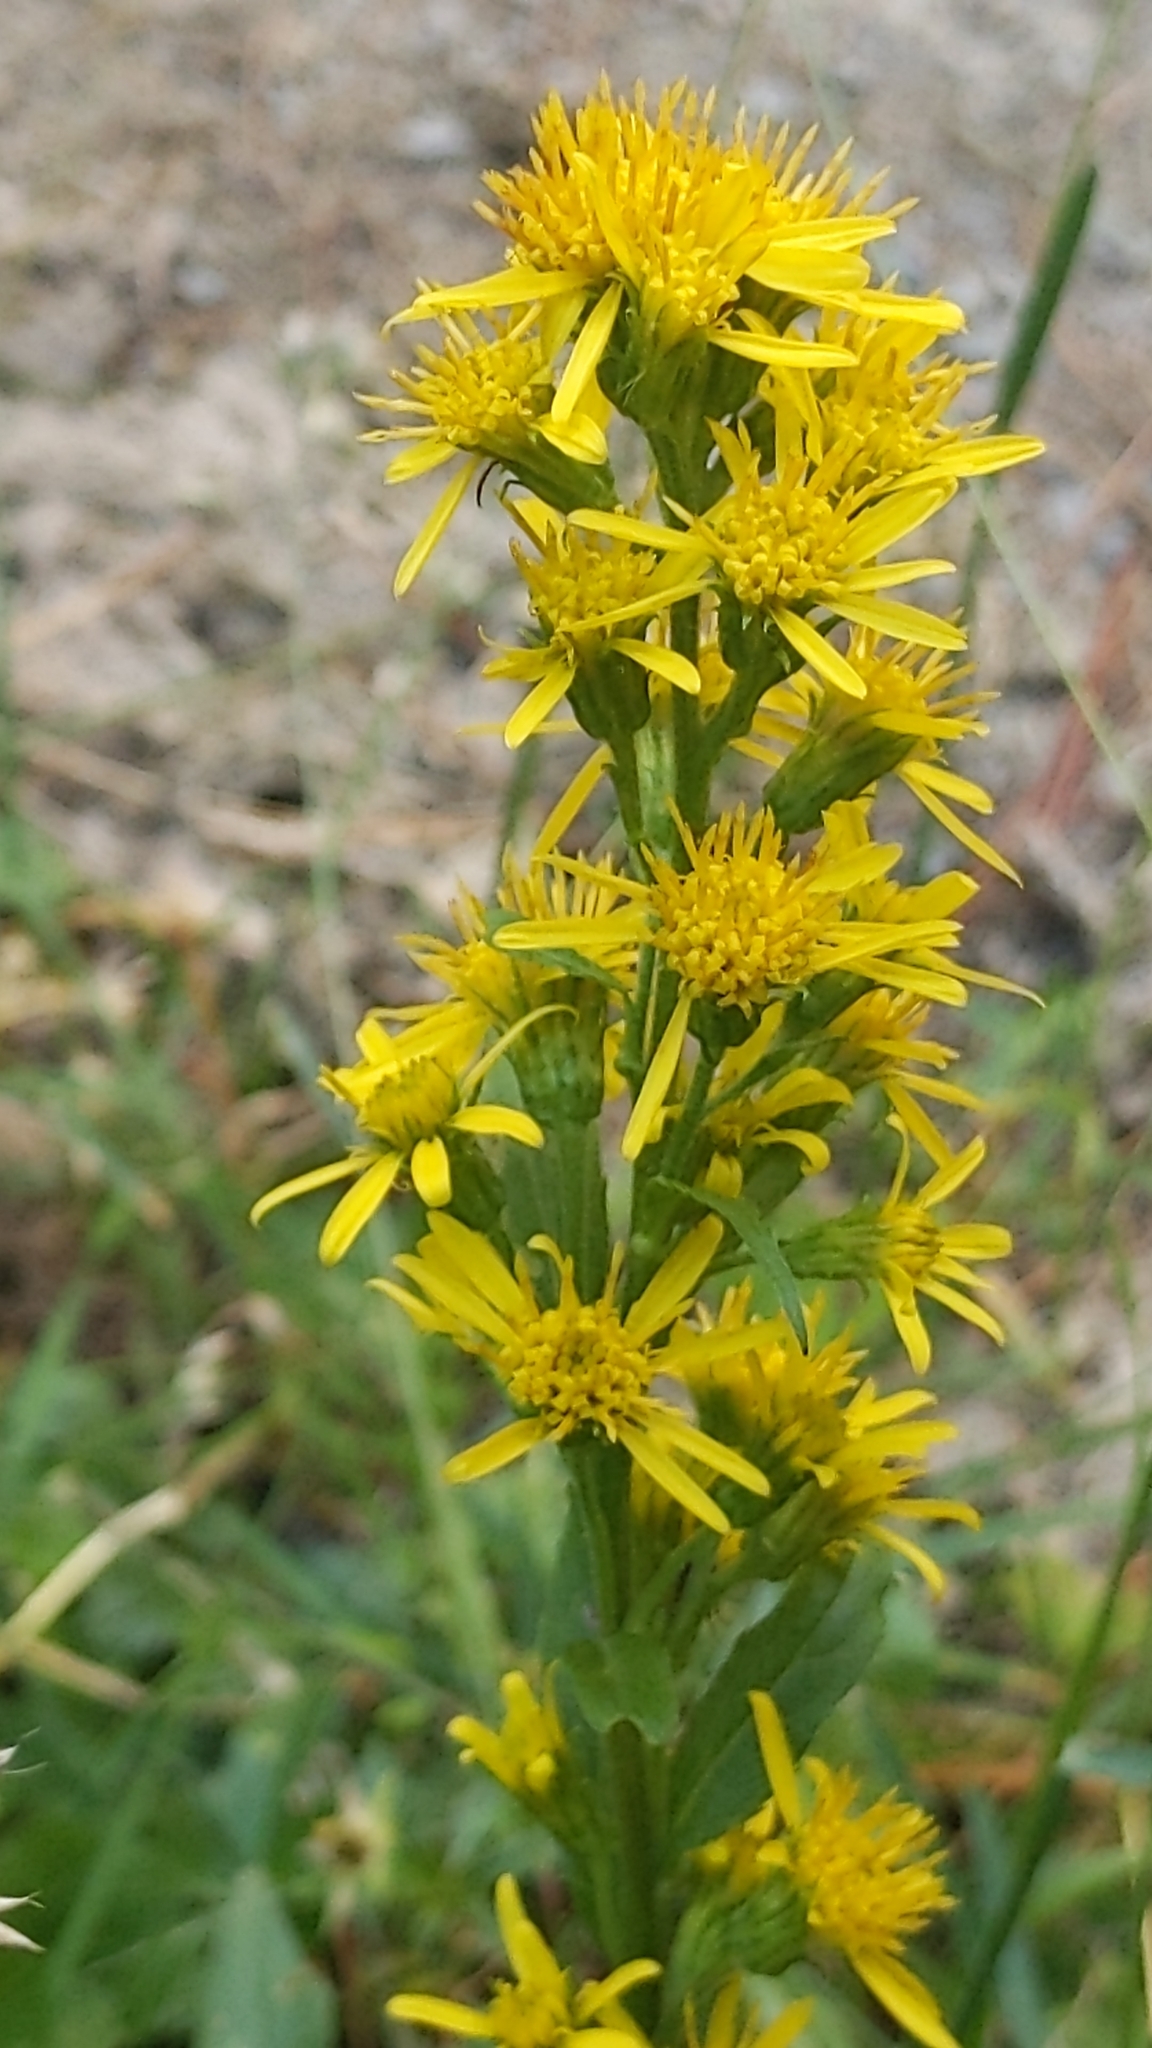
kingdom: Plantae
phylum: Tracheophyta
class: Magnoliopsida
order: Asterales
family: Asteraceae
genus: Solidago
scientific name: Solidago virgaurea
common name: Goldenrod
